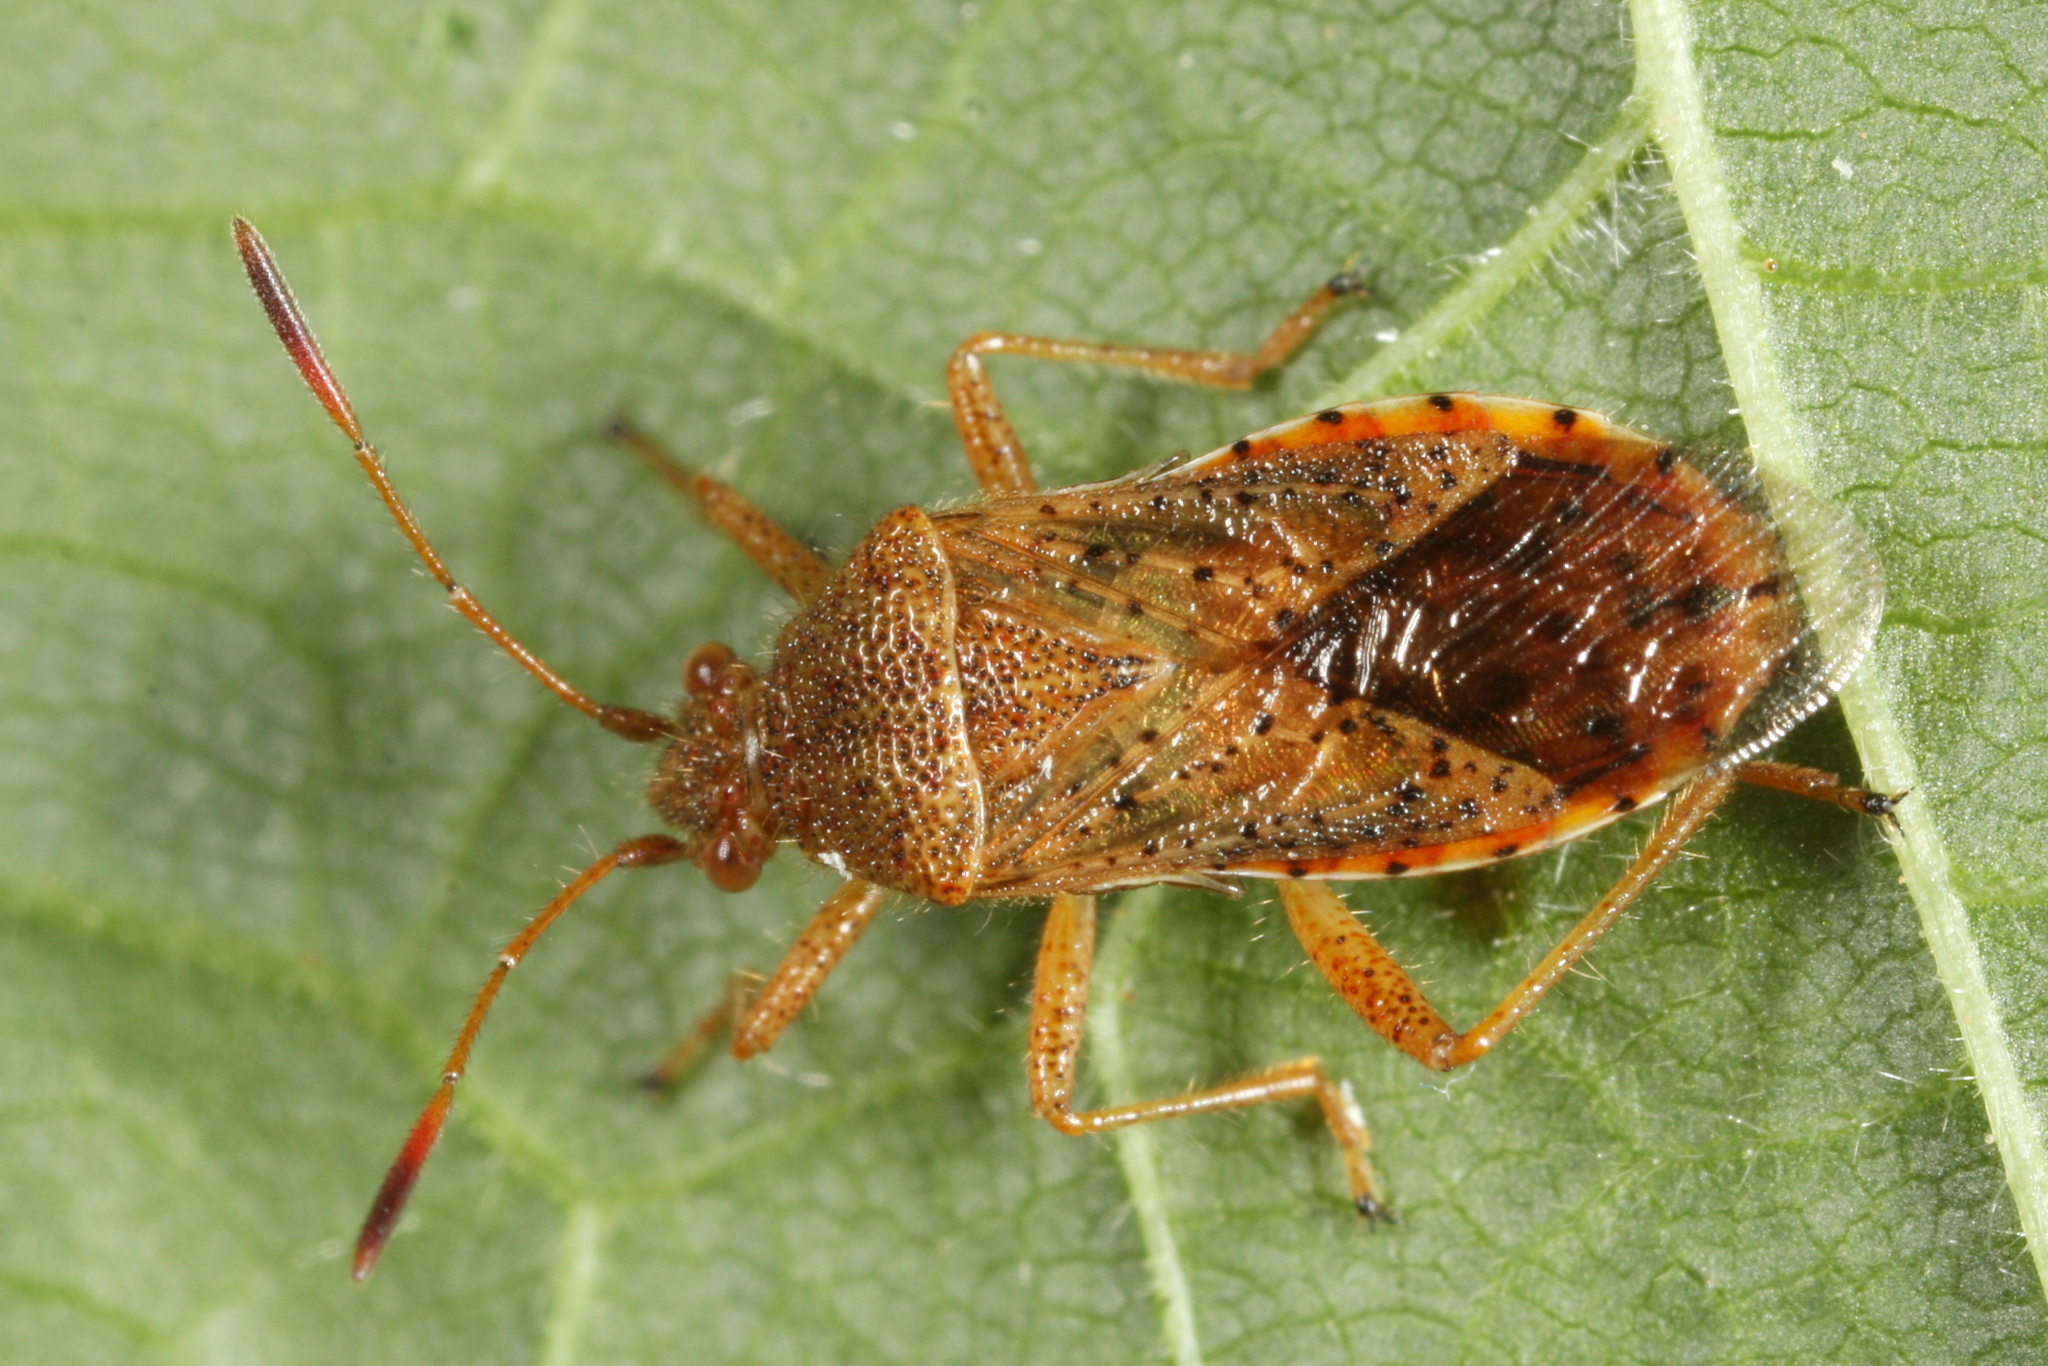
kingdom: Animalia
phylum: Arthropoda
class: Insecta
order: Hemiptera
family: Rhopalidae
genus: Rhopalus
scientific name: Rhopalus maculatus
